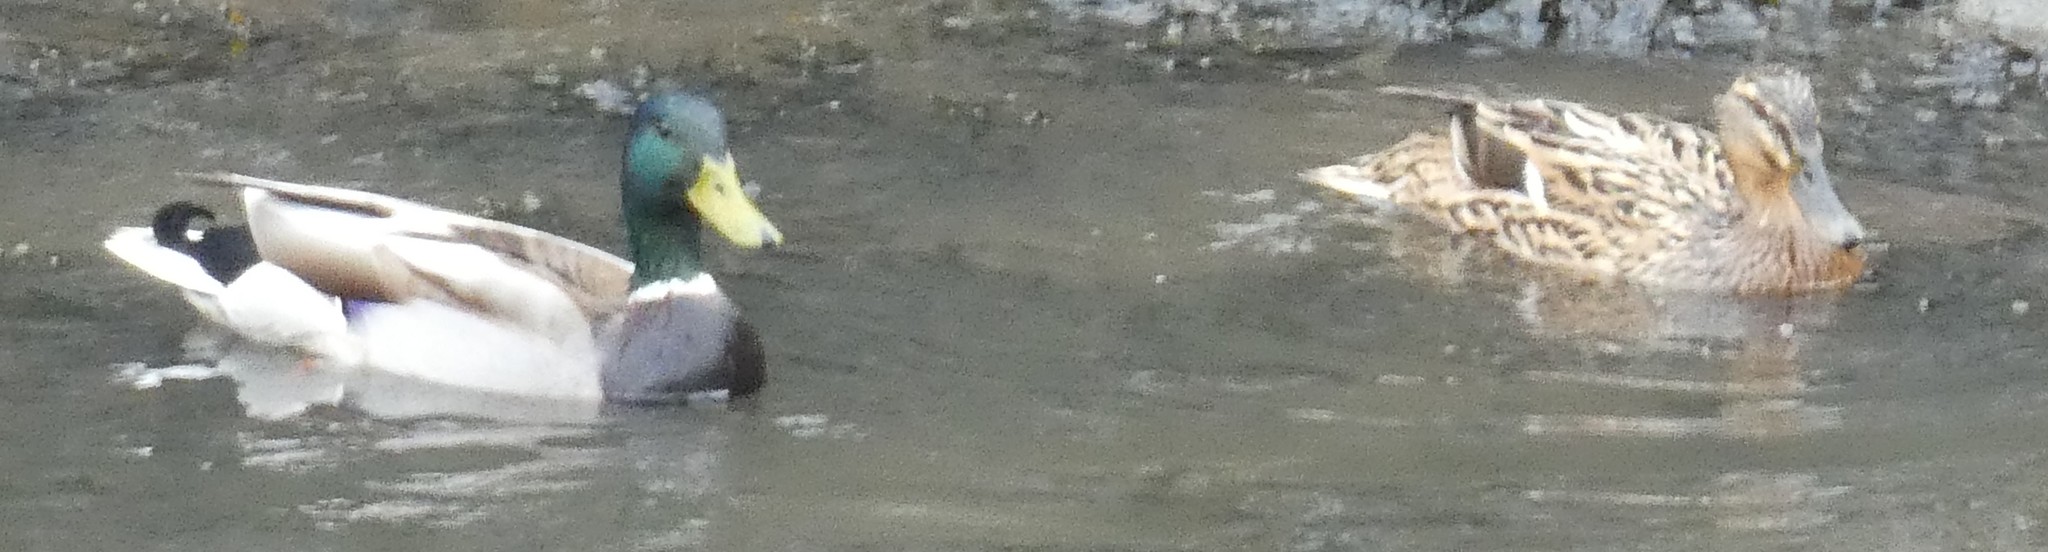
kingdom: Animalia
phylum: Chordata
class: Aves
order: Anseriformes
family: Anatidae
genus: Anas
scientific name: Anas platyrhynchos
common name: Mallard
